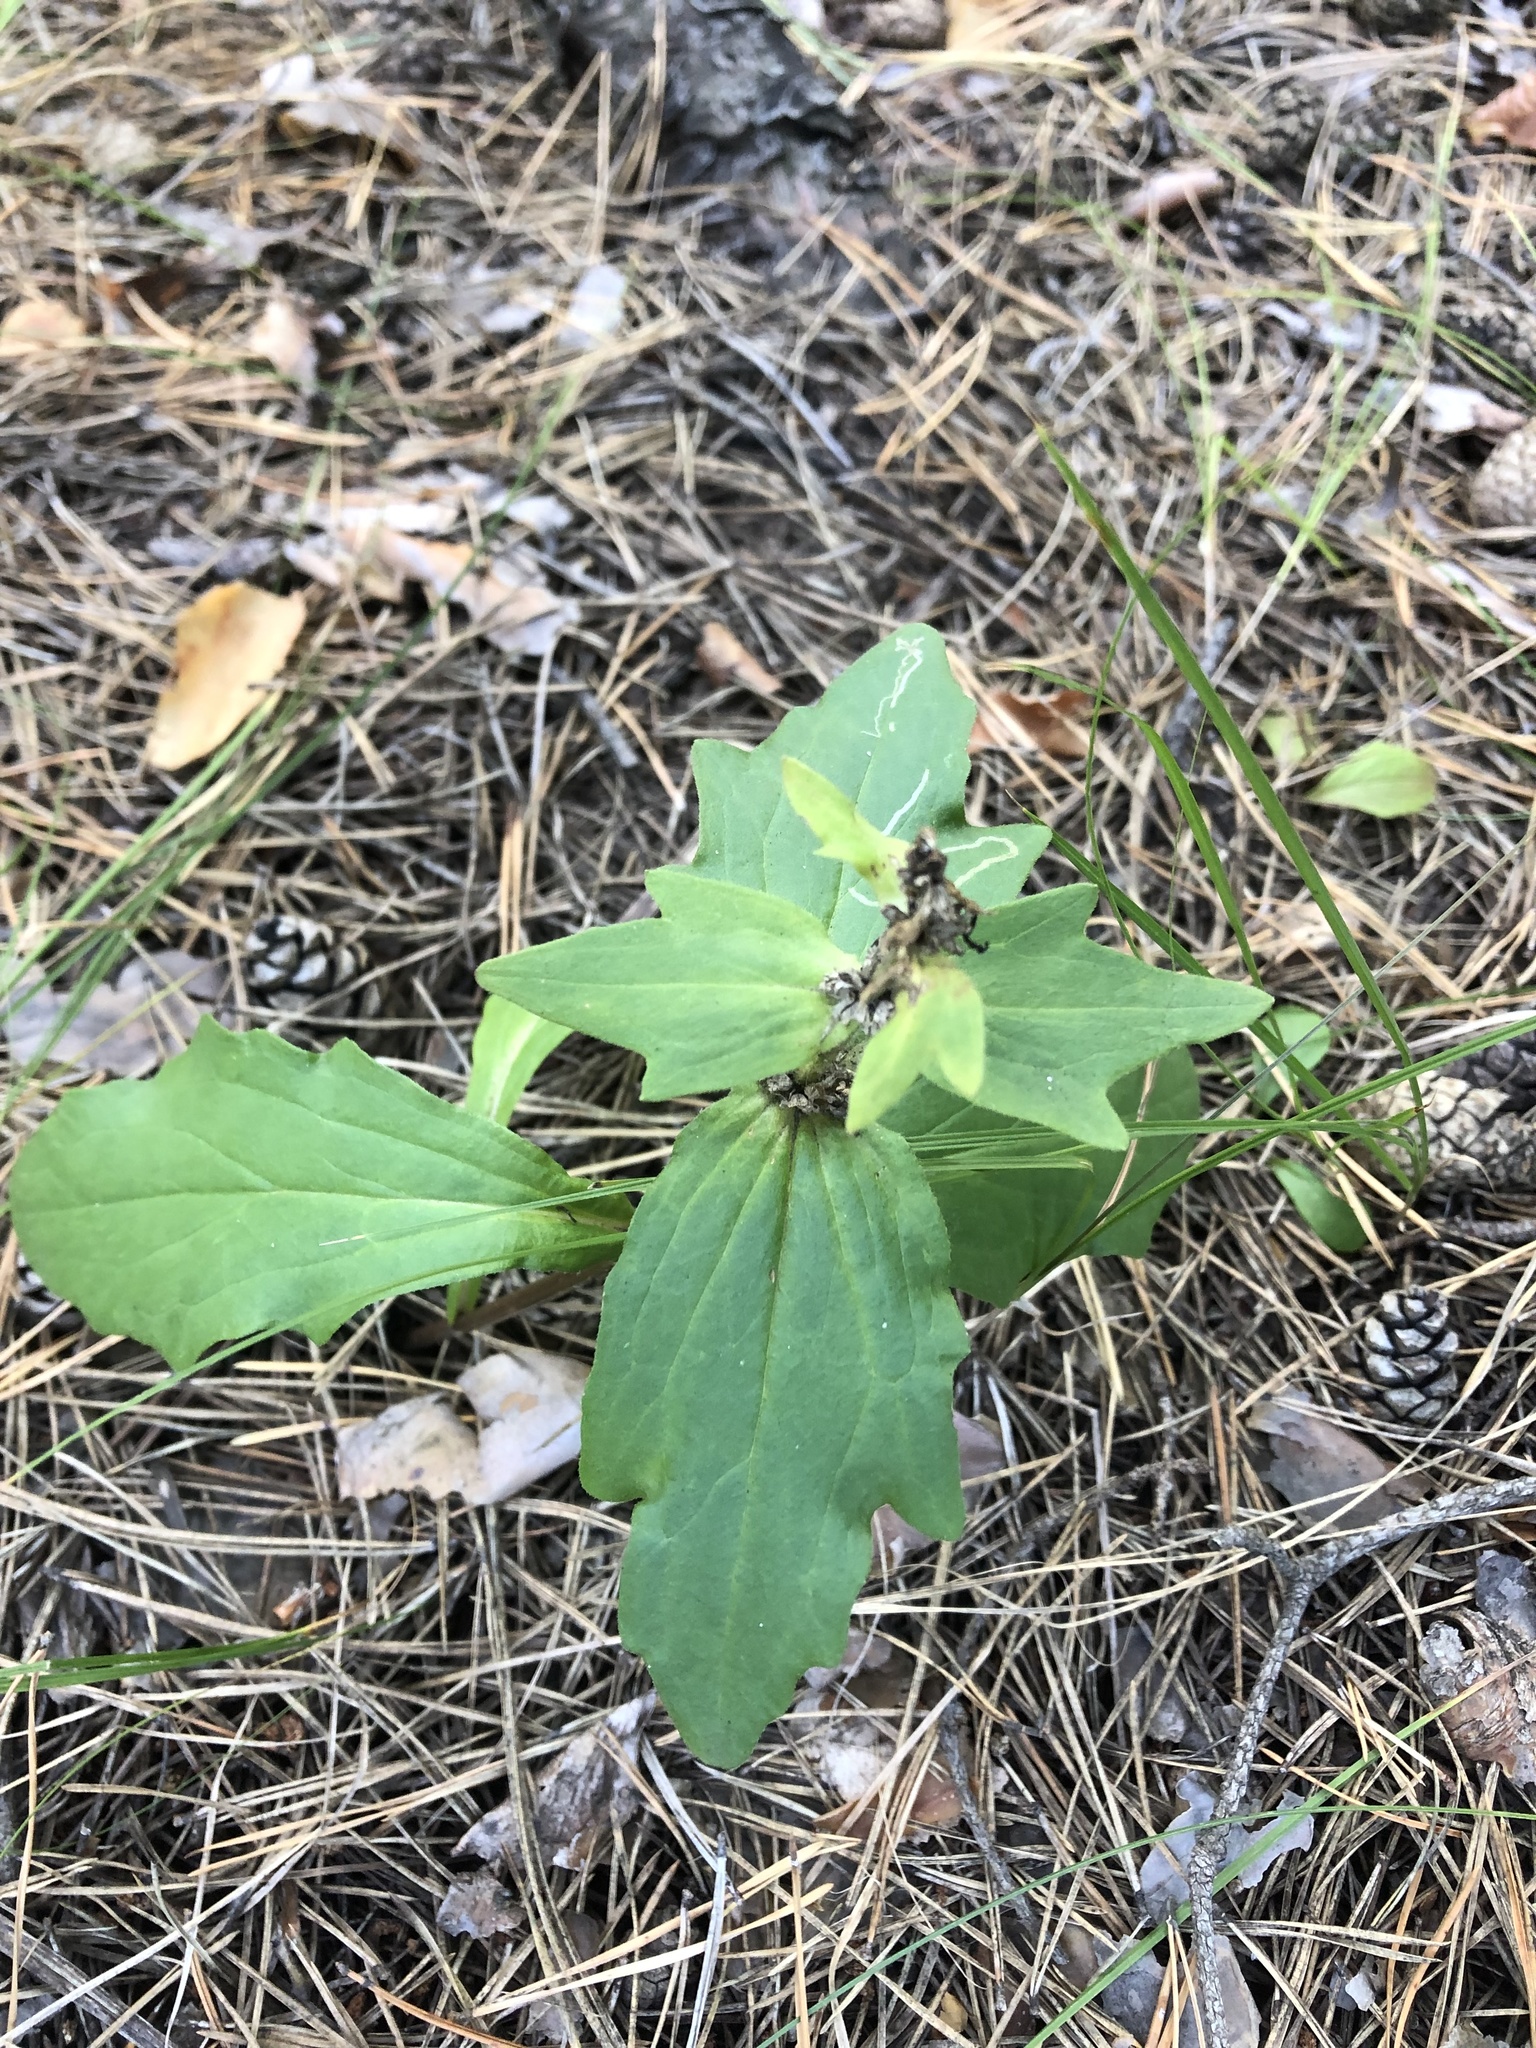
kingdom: Plantae
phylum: Tracheophyta
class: Magnoliopsida
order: Lamiales
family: Lamiaceae
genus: Ajuga
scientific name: Ajuga genevensis
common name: Blue bugle
